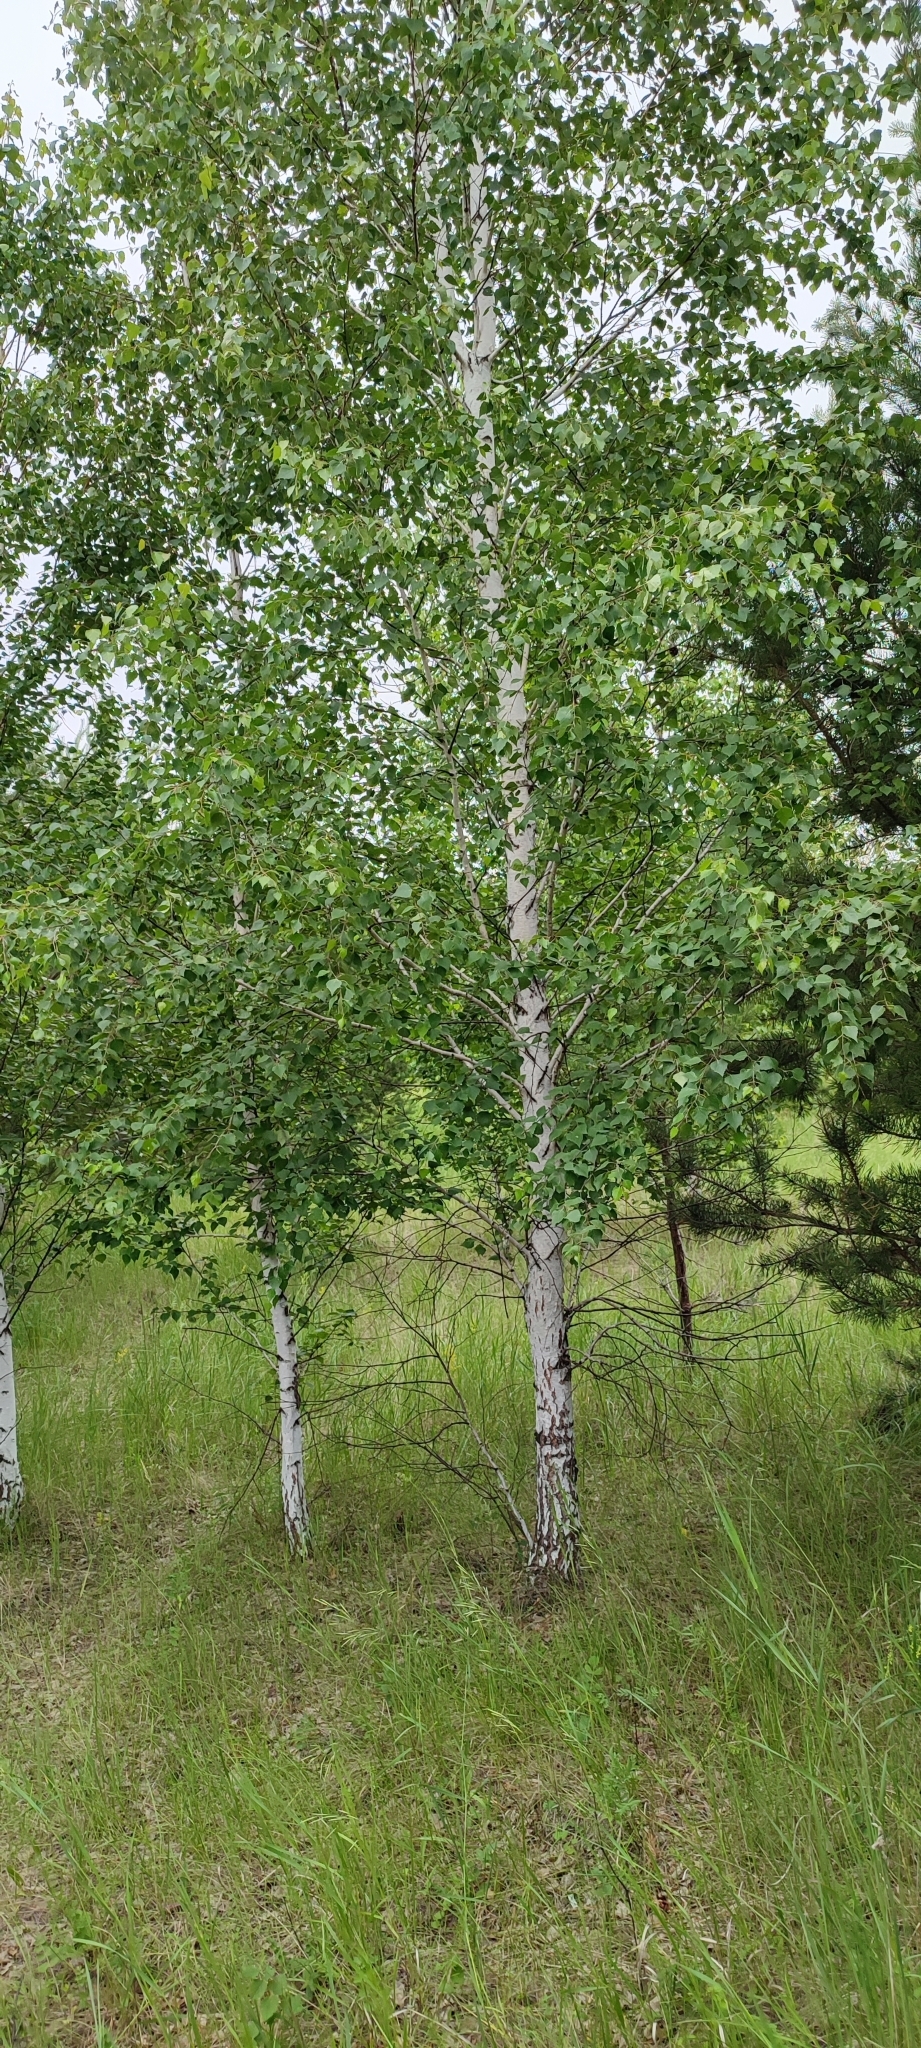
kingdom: Plantae
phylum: Tracheophyta
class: Magnoliopsida
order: Fagales
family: Betulaceae
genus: Betula
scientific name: Betula pendula
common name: Silver birch
